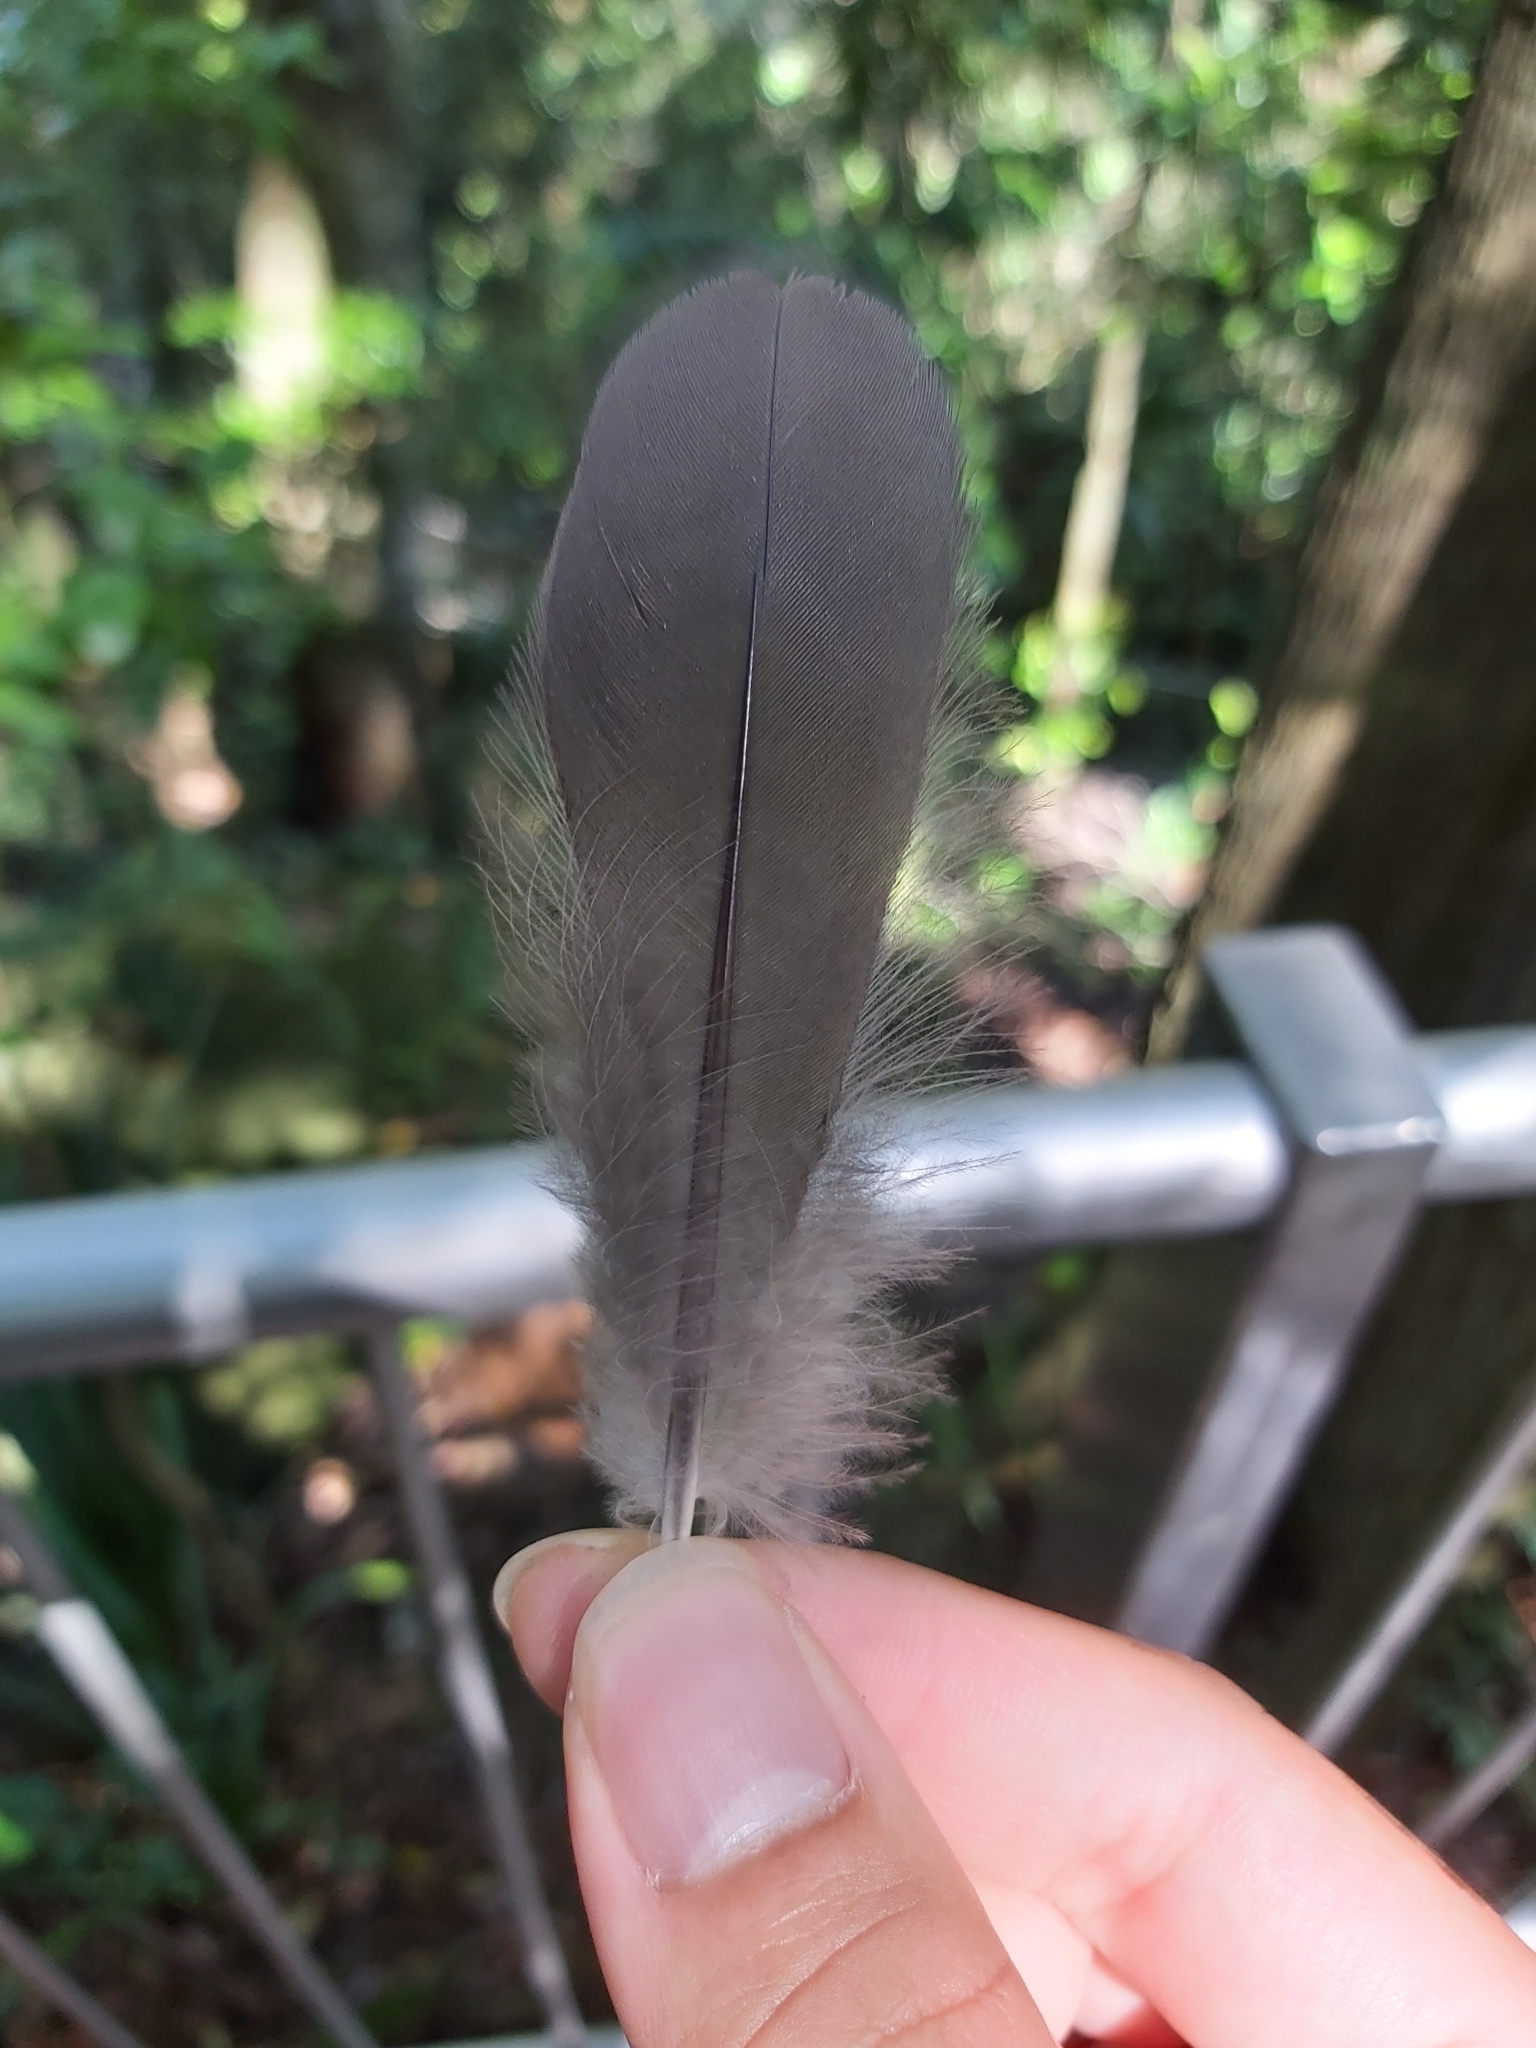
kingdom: Animalia
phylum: Chordata
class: Aves
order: Columbiformes
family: Columbidae
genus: Leucosarcia
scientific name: Leucosarcia melanoleuca
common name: Wonga pigeon
